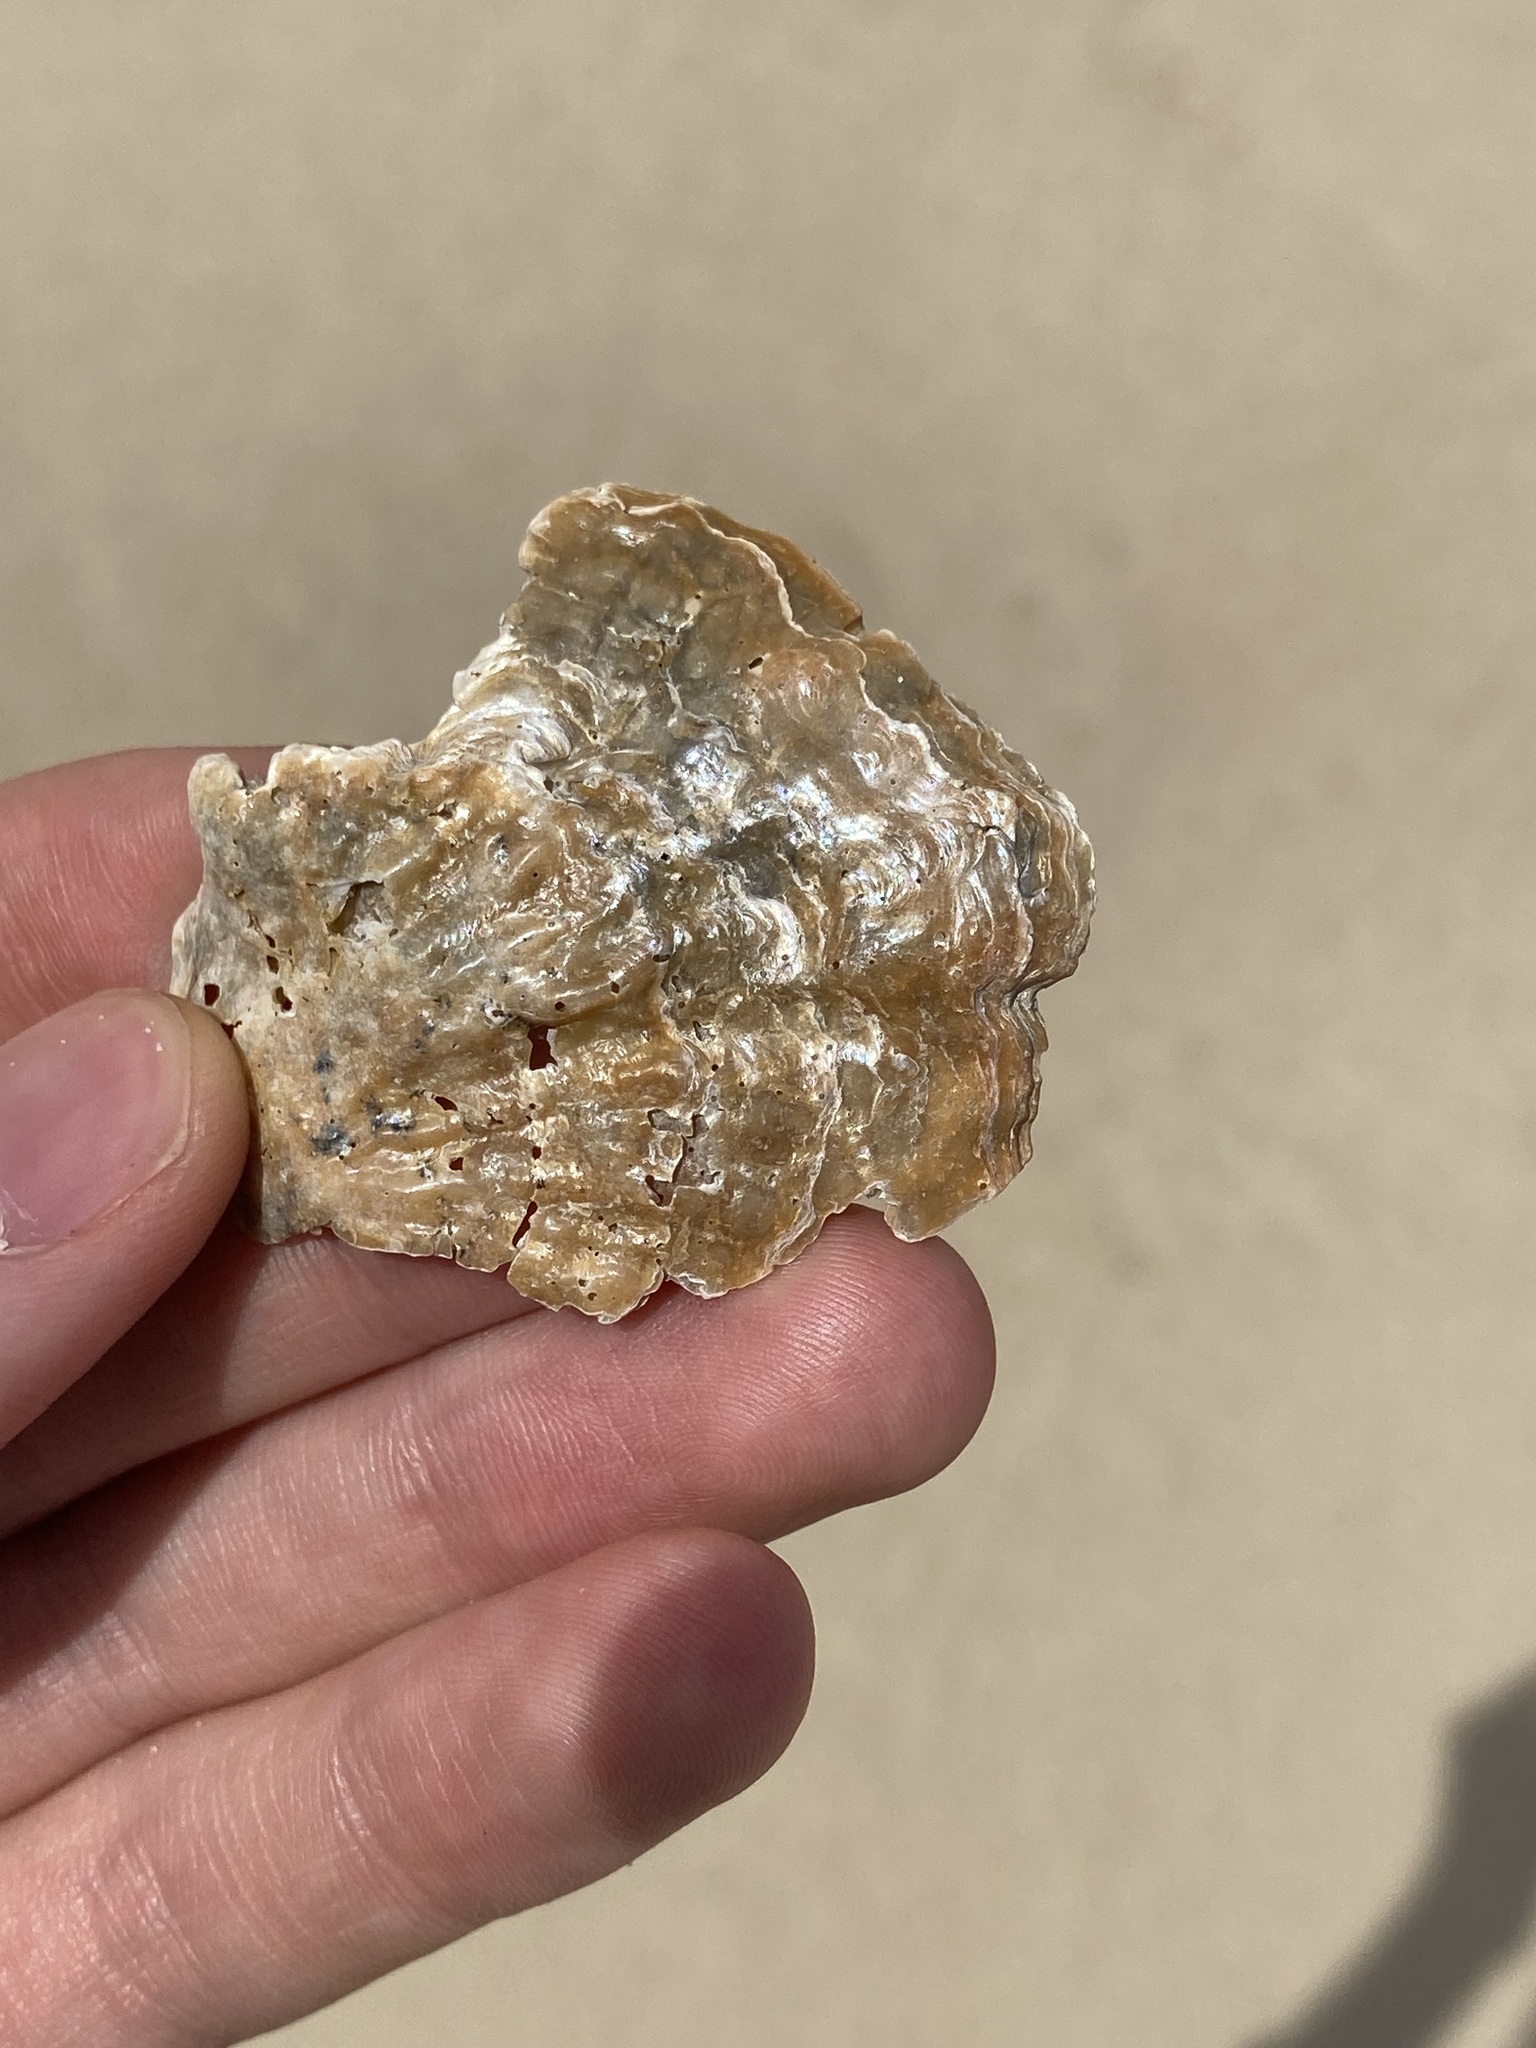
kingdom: Animalia
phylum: Mollusca
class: Bivalvia
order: Pectinida
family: Anomiidae
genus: Anomia
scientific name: Anomia trigonopsis
